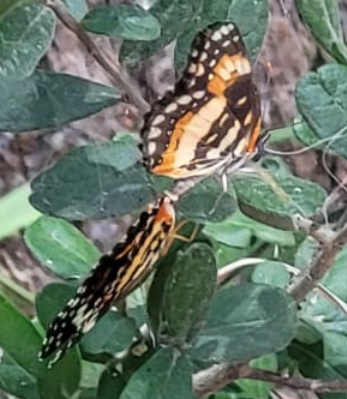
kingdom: Animalia
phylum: Arthropoda
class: Insecta
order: Lepidoptera
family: Nymphalidae
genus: Chlosyne
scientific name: Chlosyne lacinia
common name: Bordered patch
